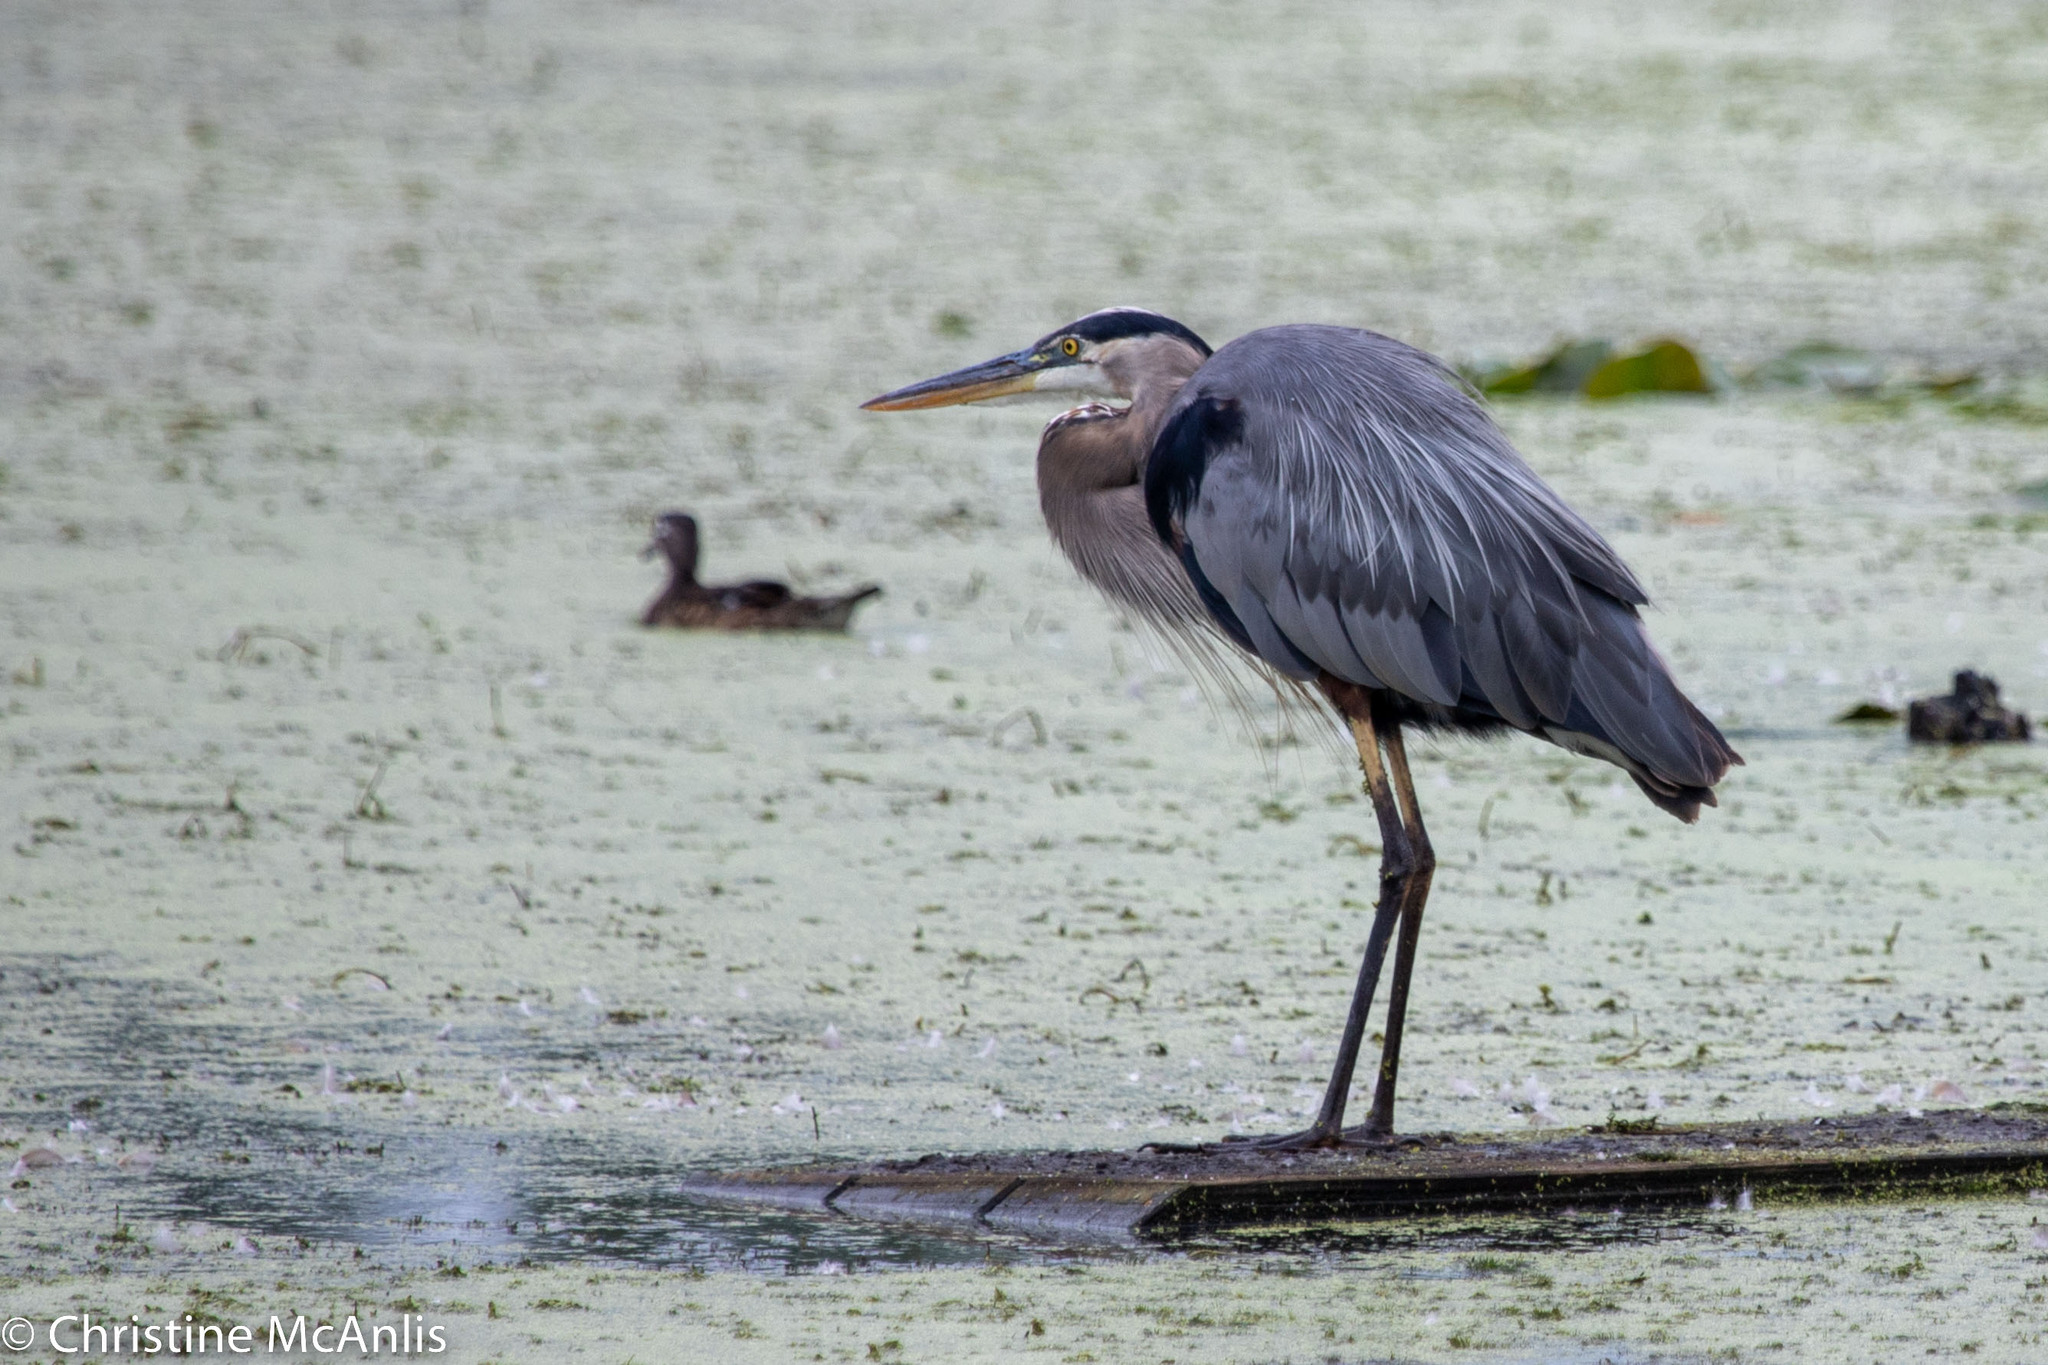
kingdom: Animalia
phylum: Chordata
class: Aves
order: Pelecaniformes
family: Ardeidae
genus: Ardea
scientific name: Ardea herodias
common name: Great blue heron
